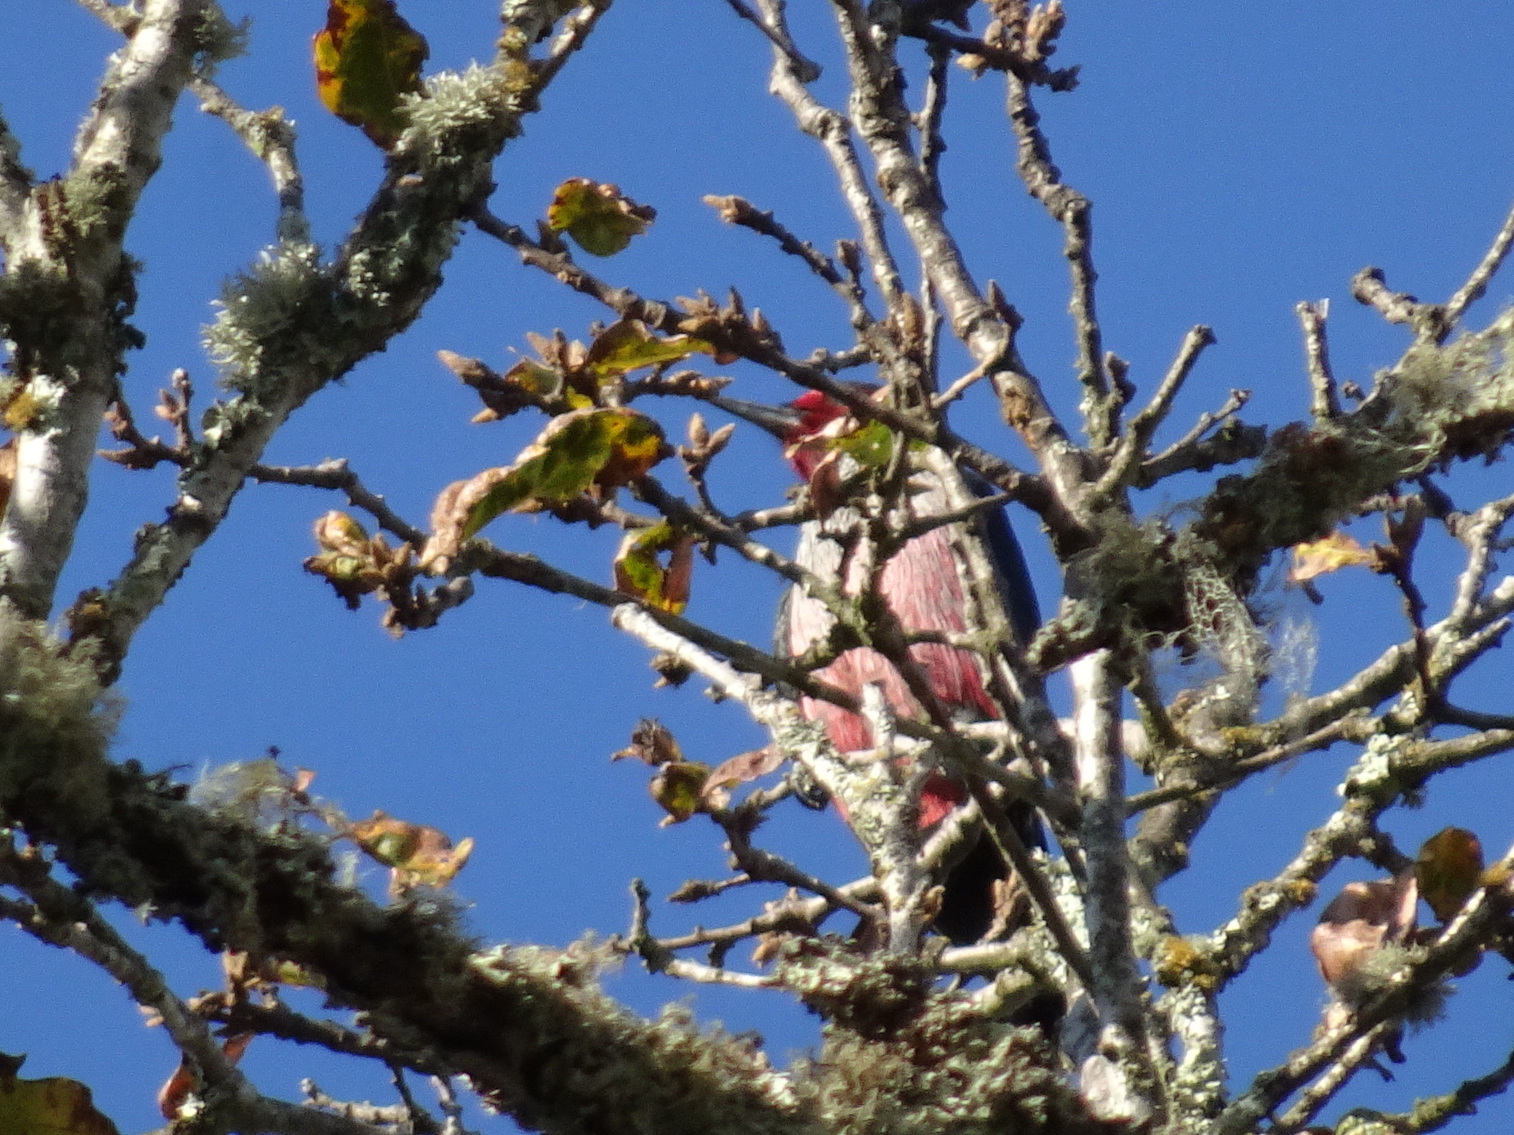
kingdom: Animalia
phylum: Chordata
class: Aves
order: Piciformes
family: Picidae
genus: Melanerpes
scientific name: Melanerpes lewis
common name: Lewis's woodpecker
